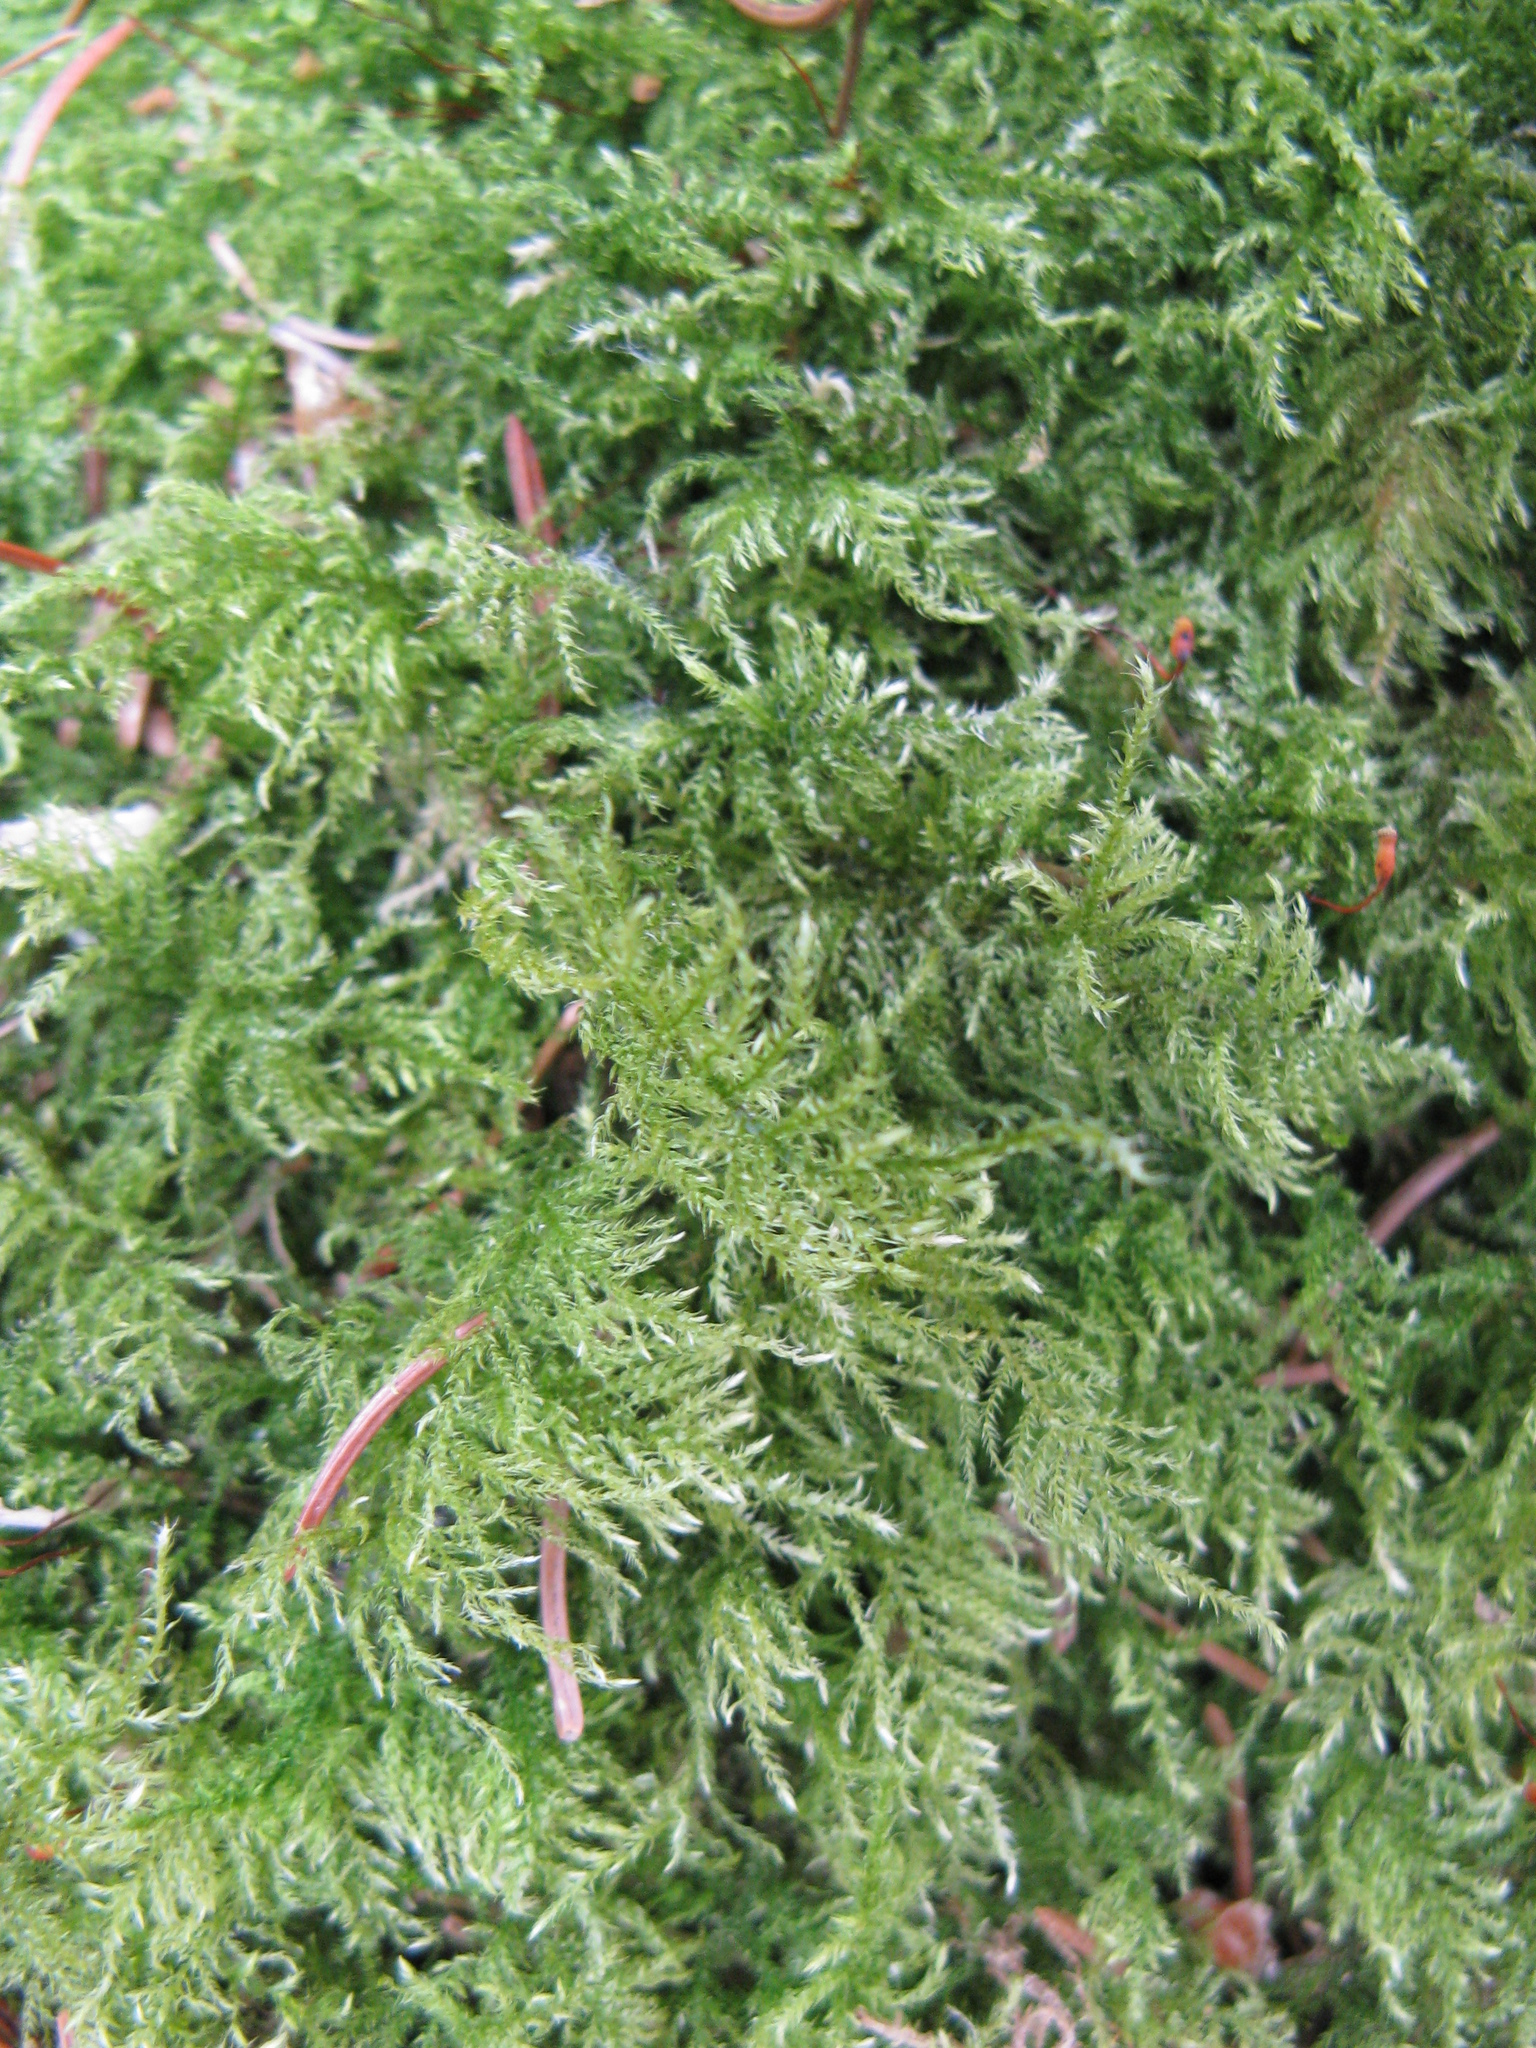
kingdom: Plantae
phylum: Bryophyta
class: Bryopsida
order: Hypnales
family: Brachytheciaceae
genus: Kindbergia
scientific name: Kindbergia praelonga
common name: Slender beaked moss
